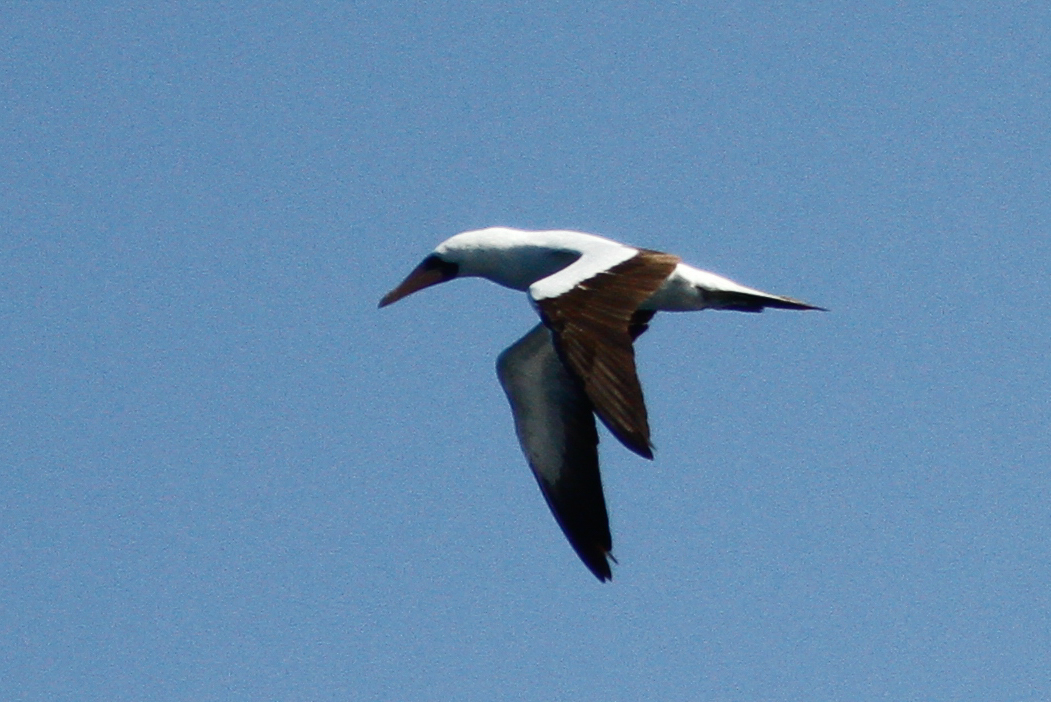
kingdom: Animalia
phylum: Chordata
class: Aves
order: Suliformes
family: Sulidae
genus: Sula
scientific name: Sula granti
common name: Nazca booby
